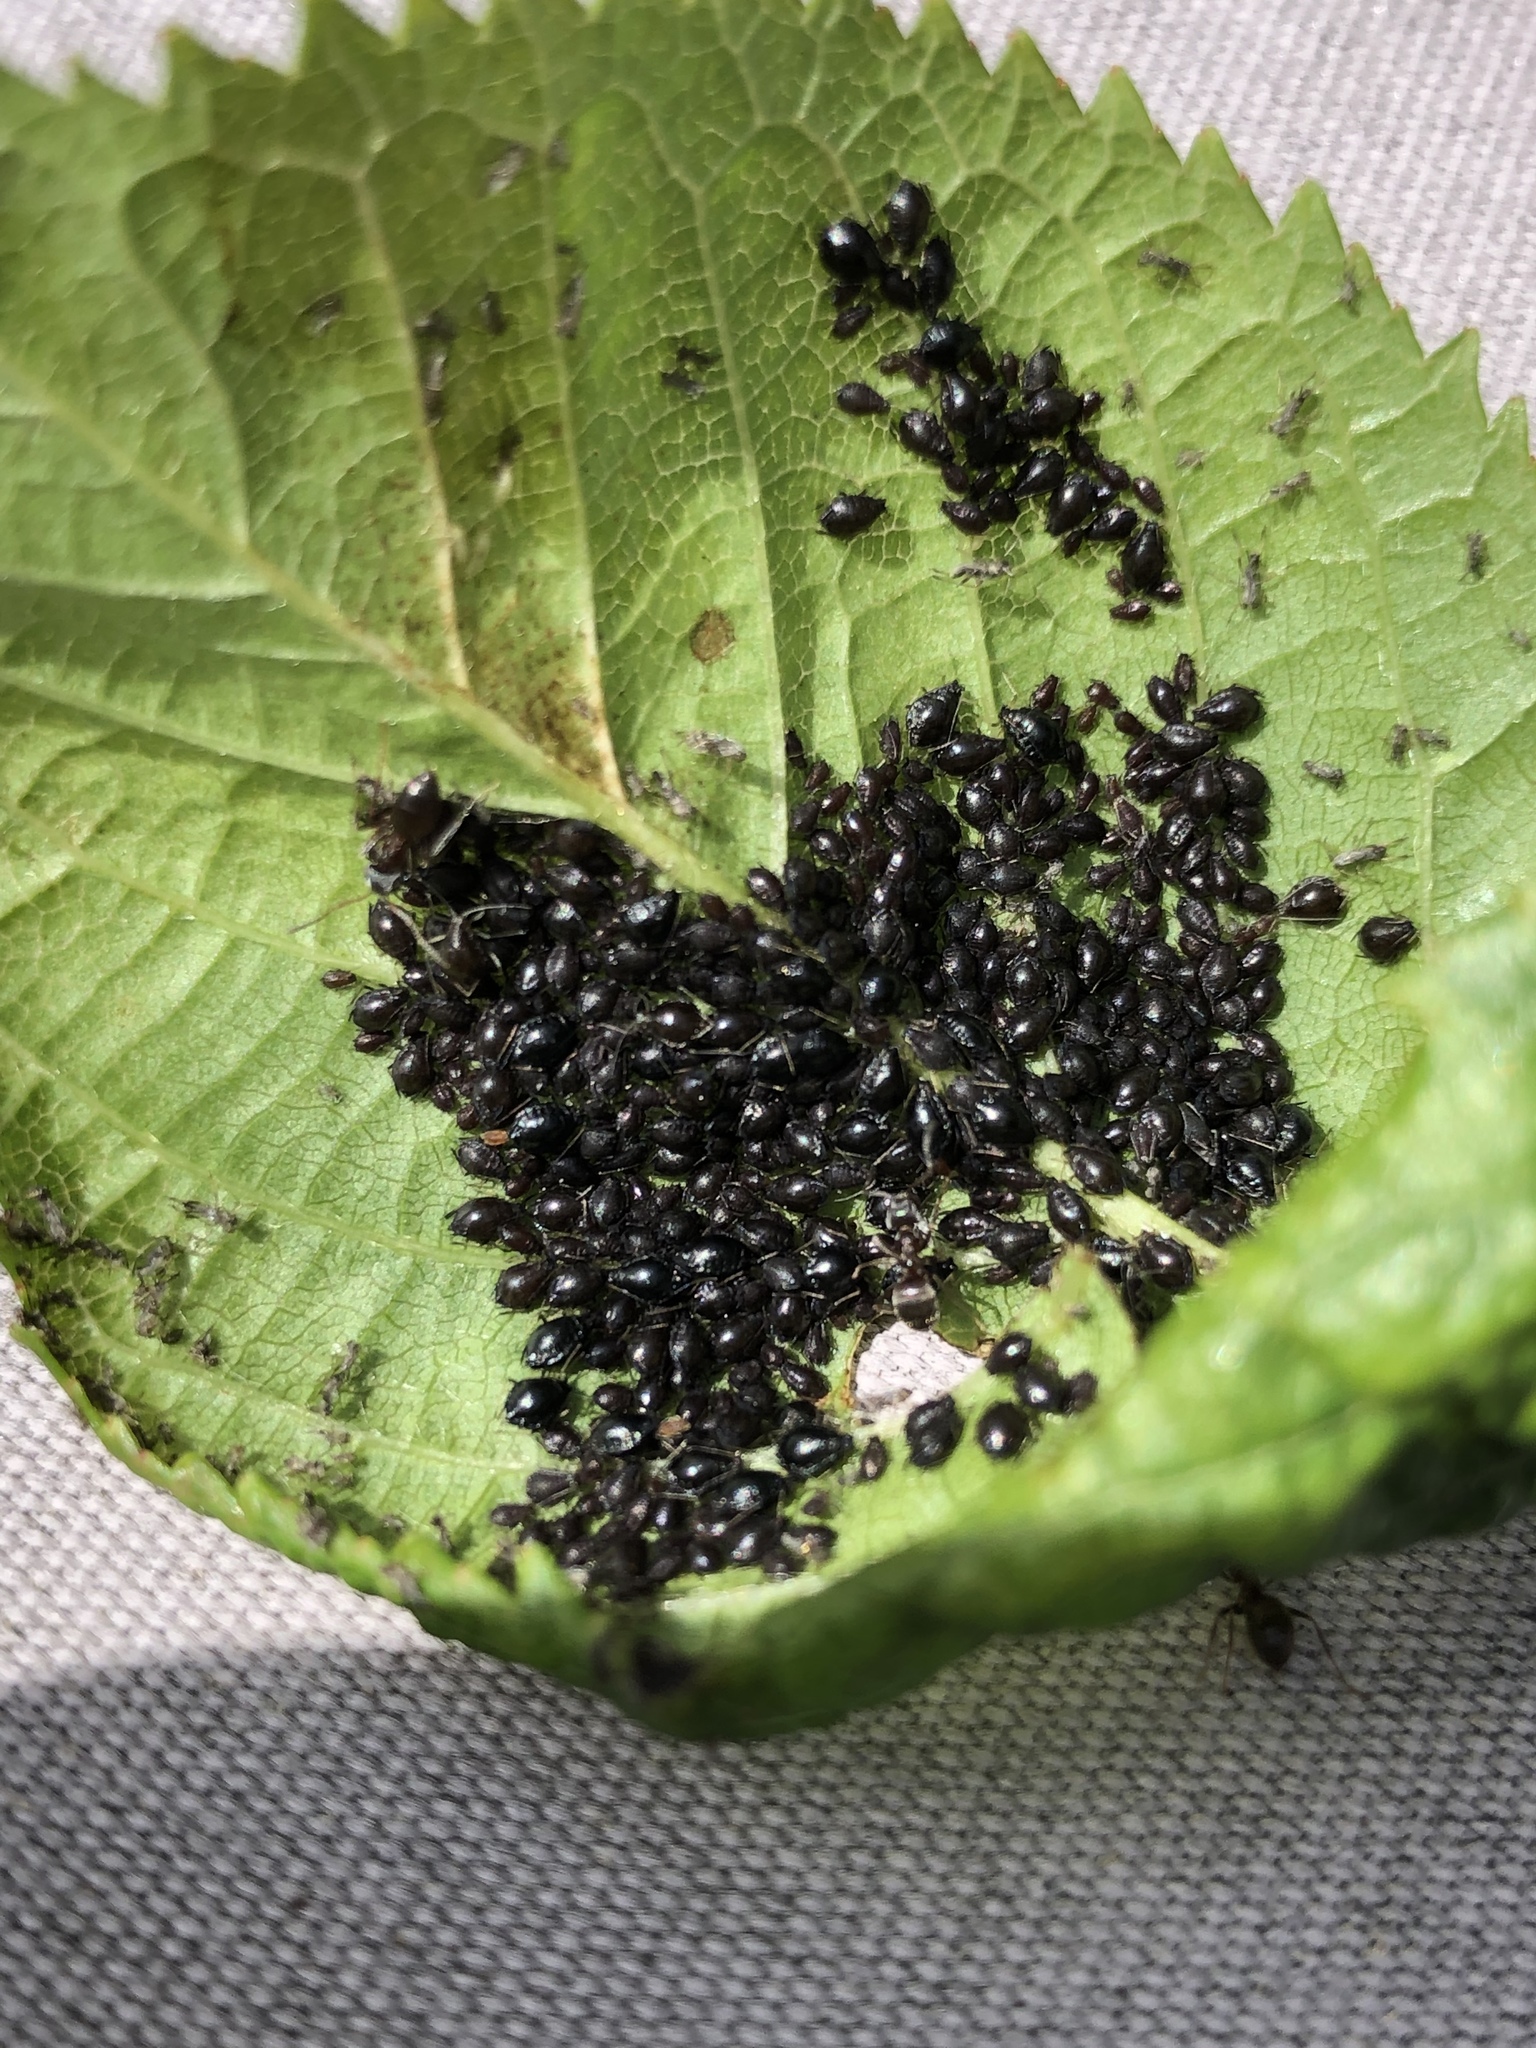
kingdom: Animalia
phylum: Arthropoda
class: Insecta
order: Hemiptera
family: Aphididae
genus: Myzus
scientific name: Myzus cerasi
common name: Black cherry aphid
